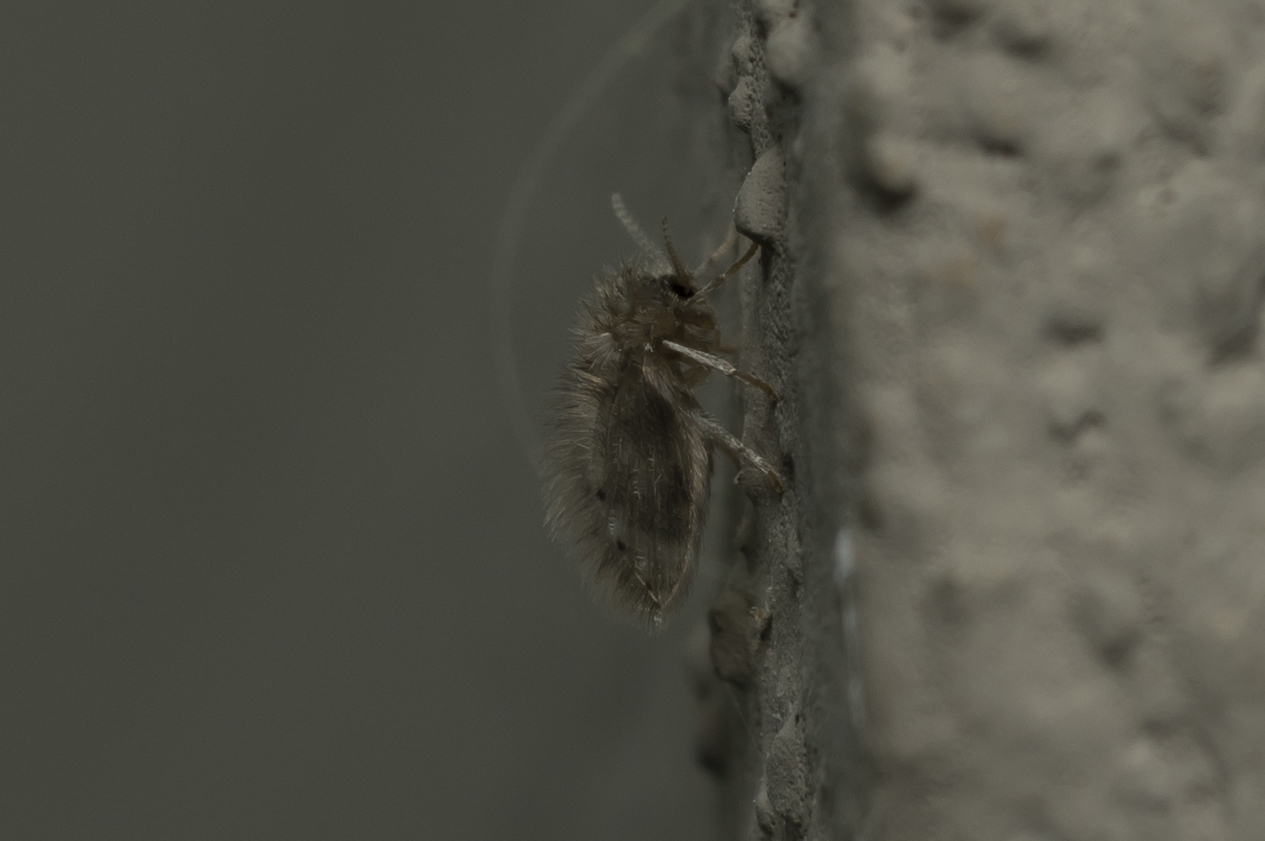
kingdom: Animalia
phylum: Arthropoda
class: Insecta
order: Diptera
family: Psychodidae
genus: Psychoda
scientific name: Psychoda alternata
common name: Moth fly
